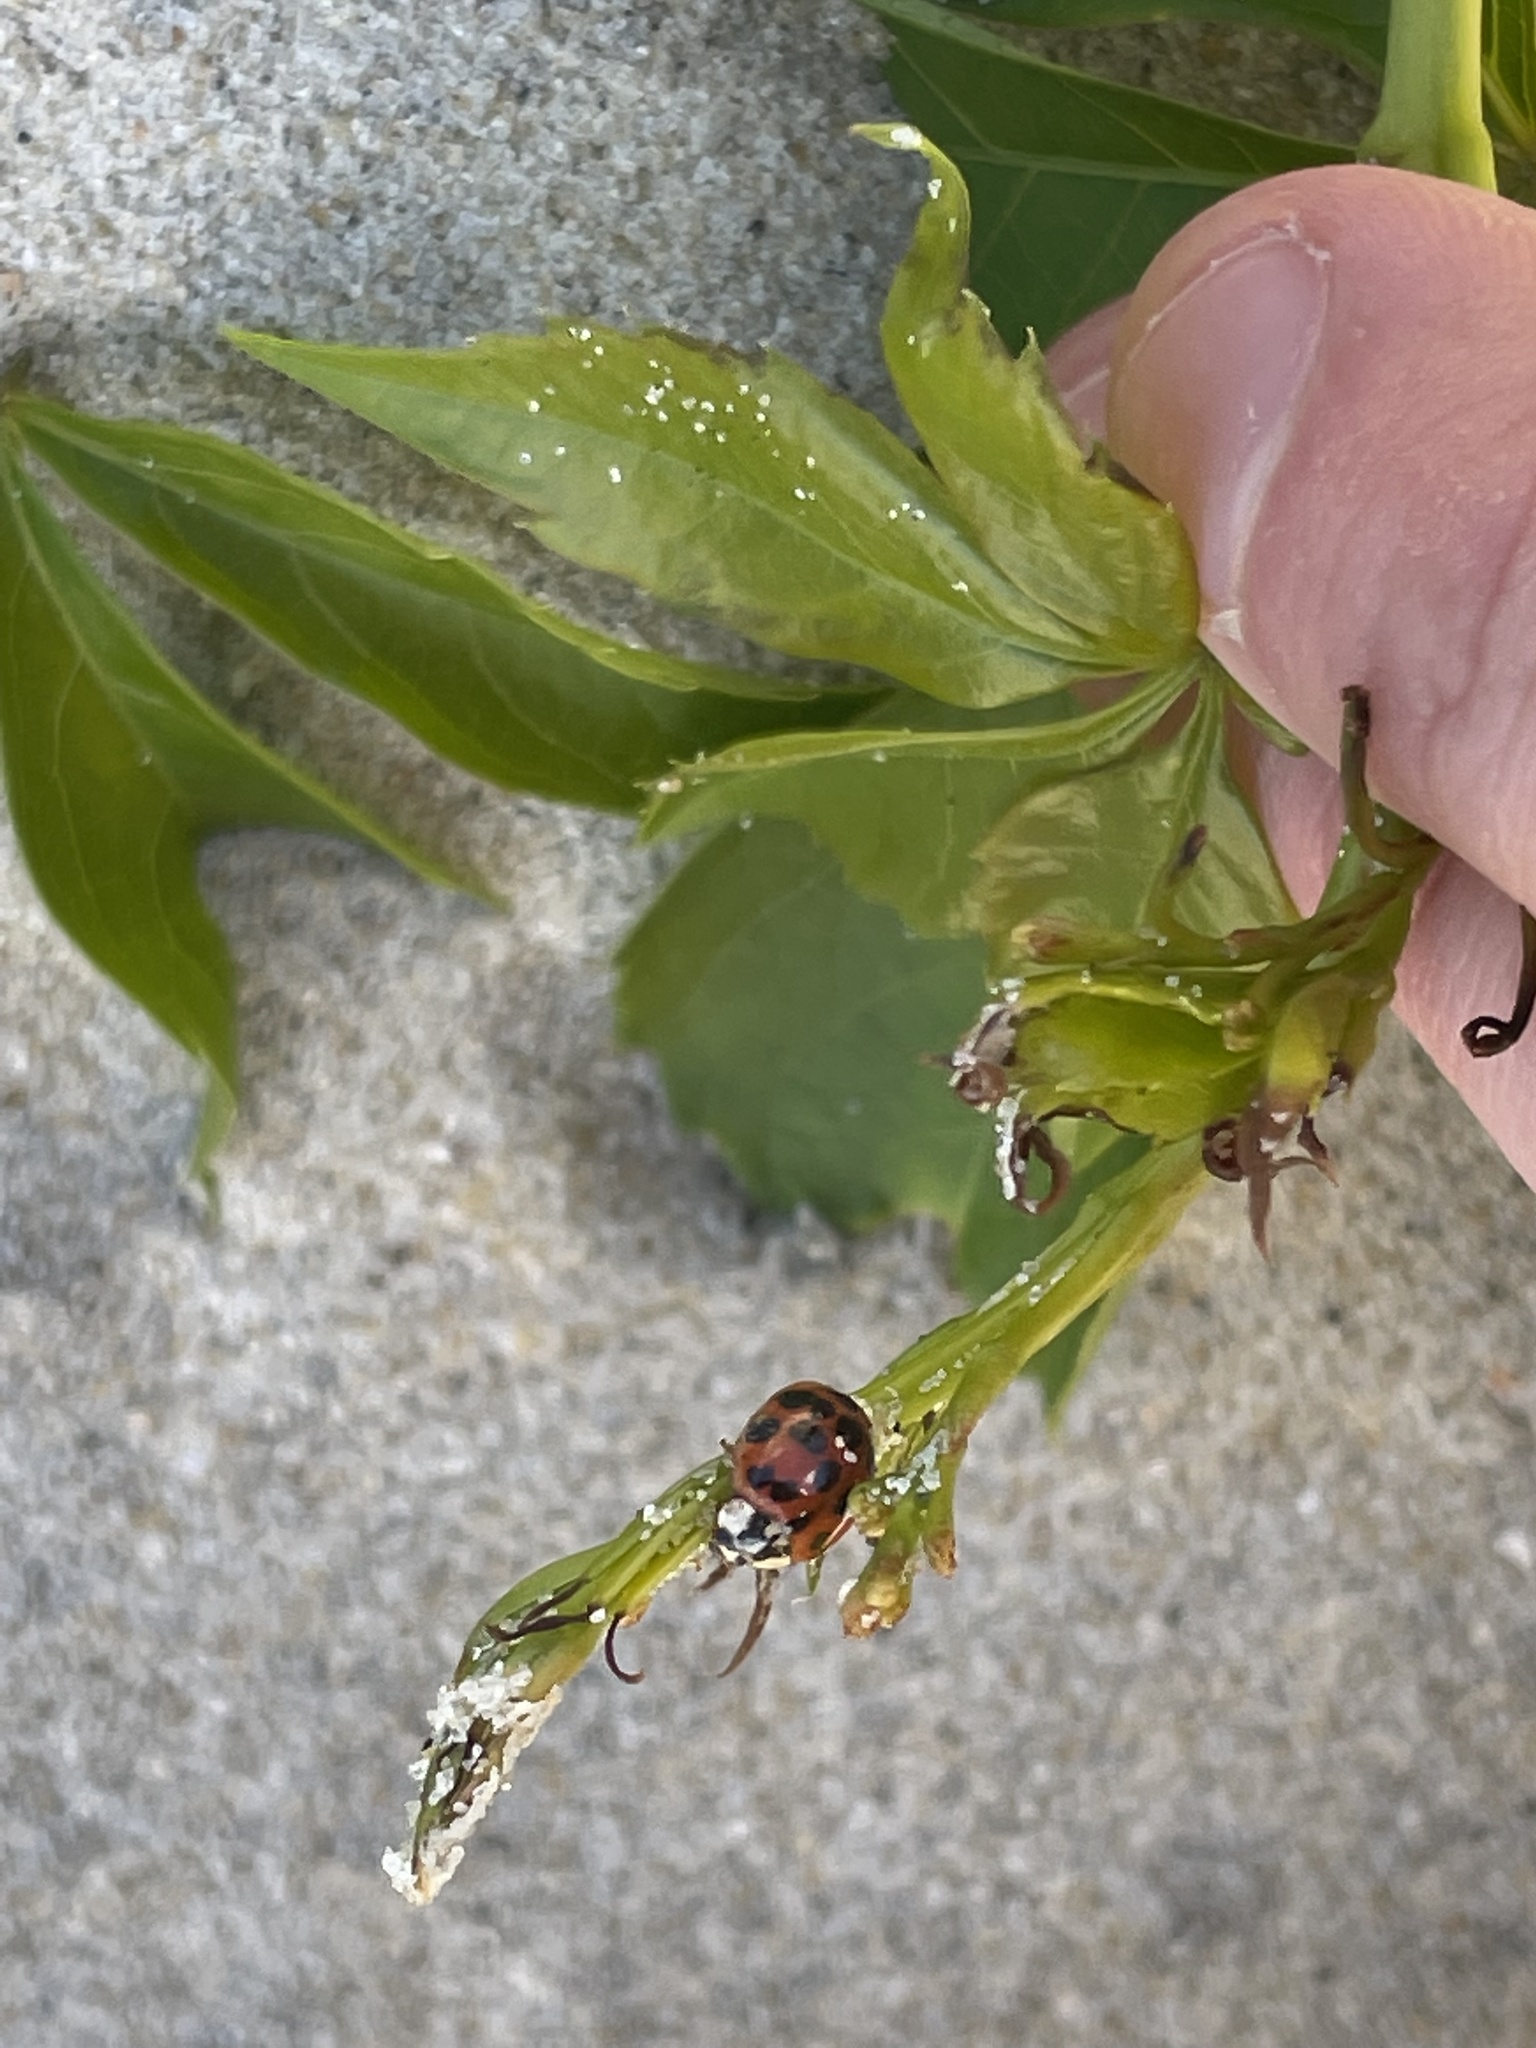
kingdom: Animalia
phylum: Arthropoda
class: Insecta
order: Coleoptera
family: Coccinellidae
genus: Harmonia
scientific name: Harmonia axyridis
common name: Harlequin ladybird
